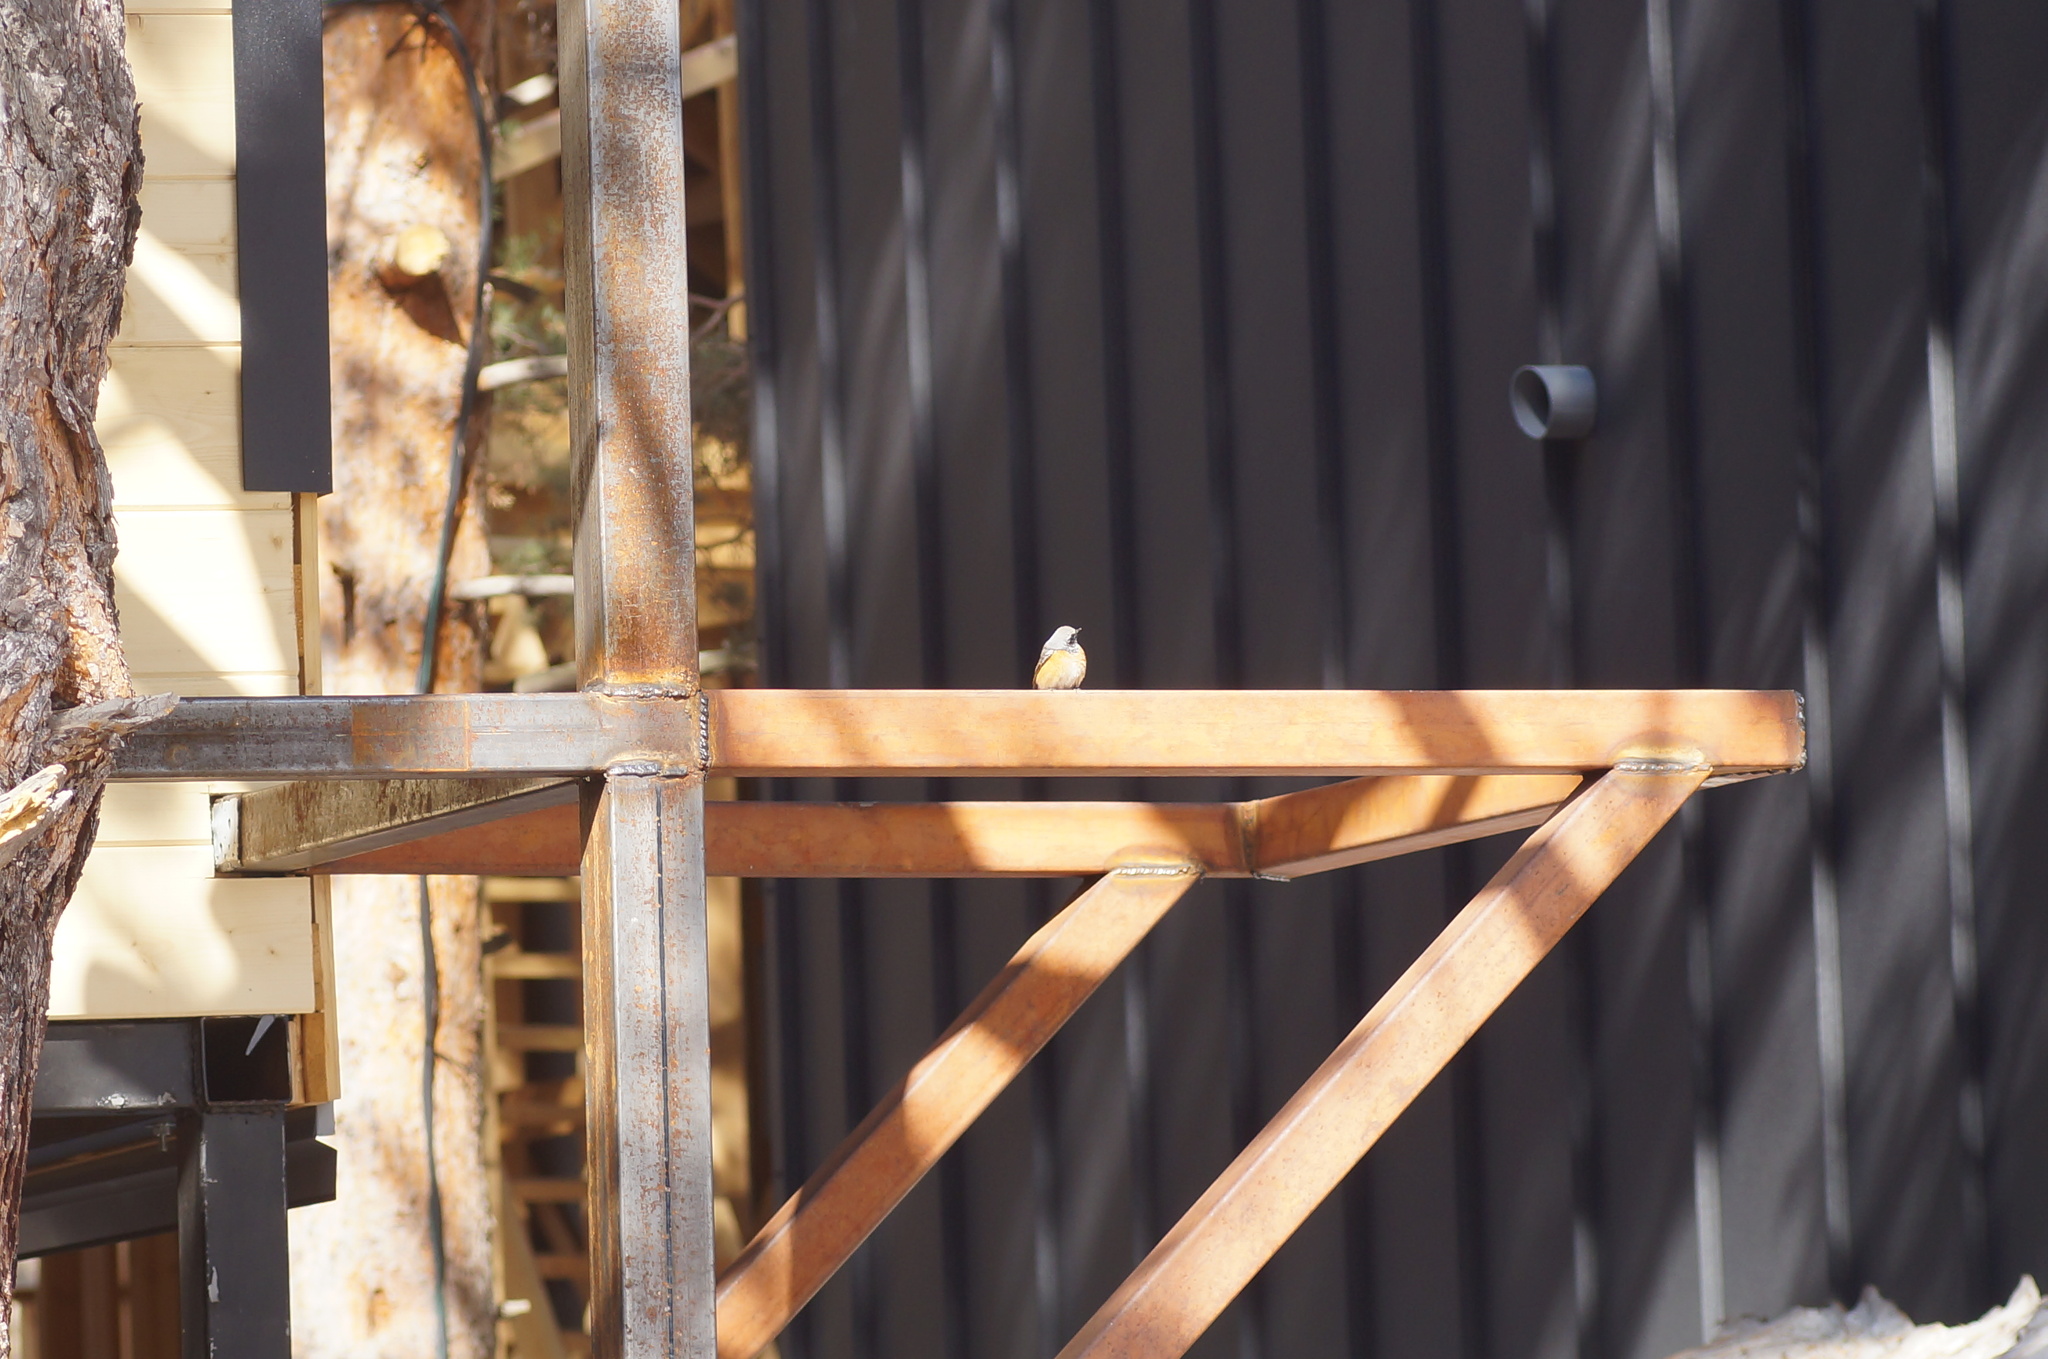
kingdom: Animalia
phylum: Chordata
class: Aves
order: Passeriformes
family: Muscicapidae
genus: Phoenicurus
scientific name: Phoenicurus phoenicurus
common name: Common redstart
